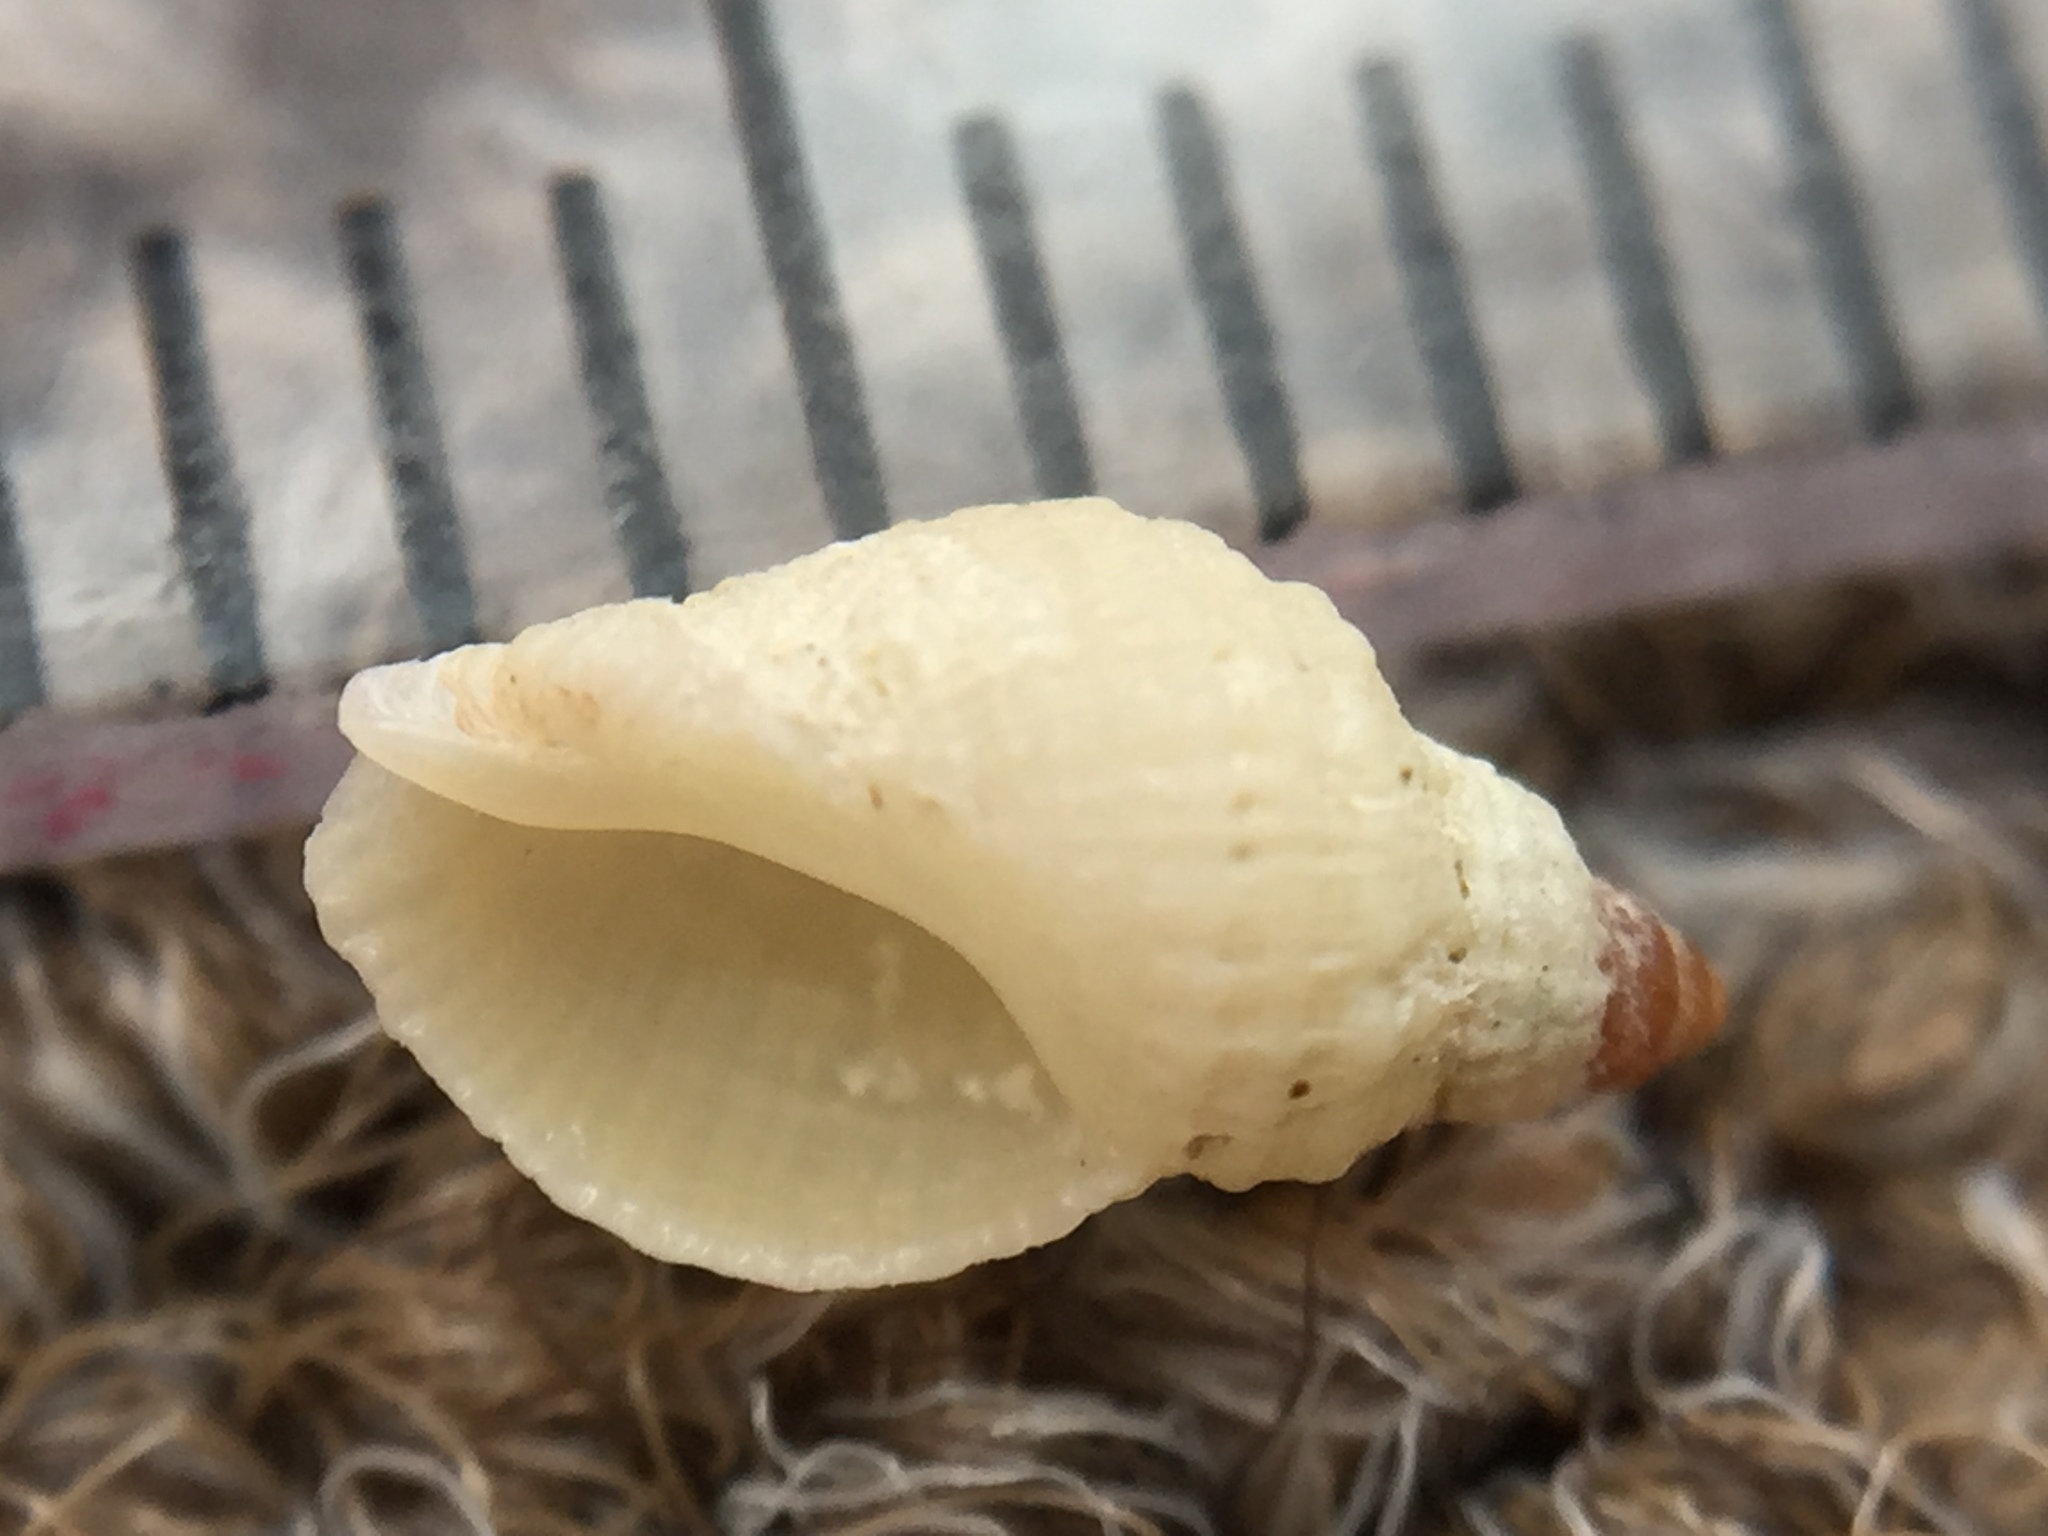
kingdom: Animalia
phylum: Mollusca
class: Gastropoda
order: Neogastropoda
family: Muricidae
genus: Dicathais
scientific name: Dicathais orbita
